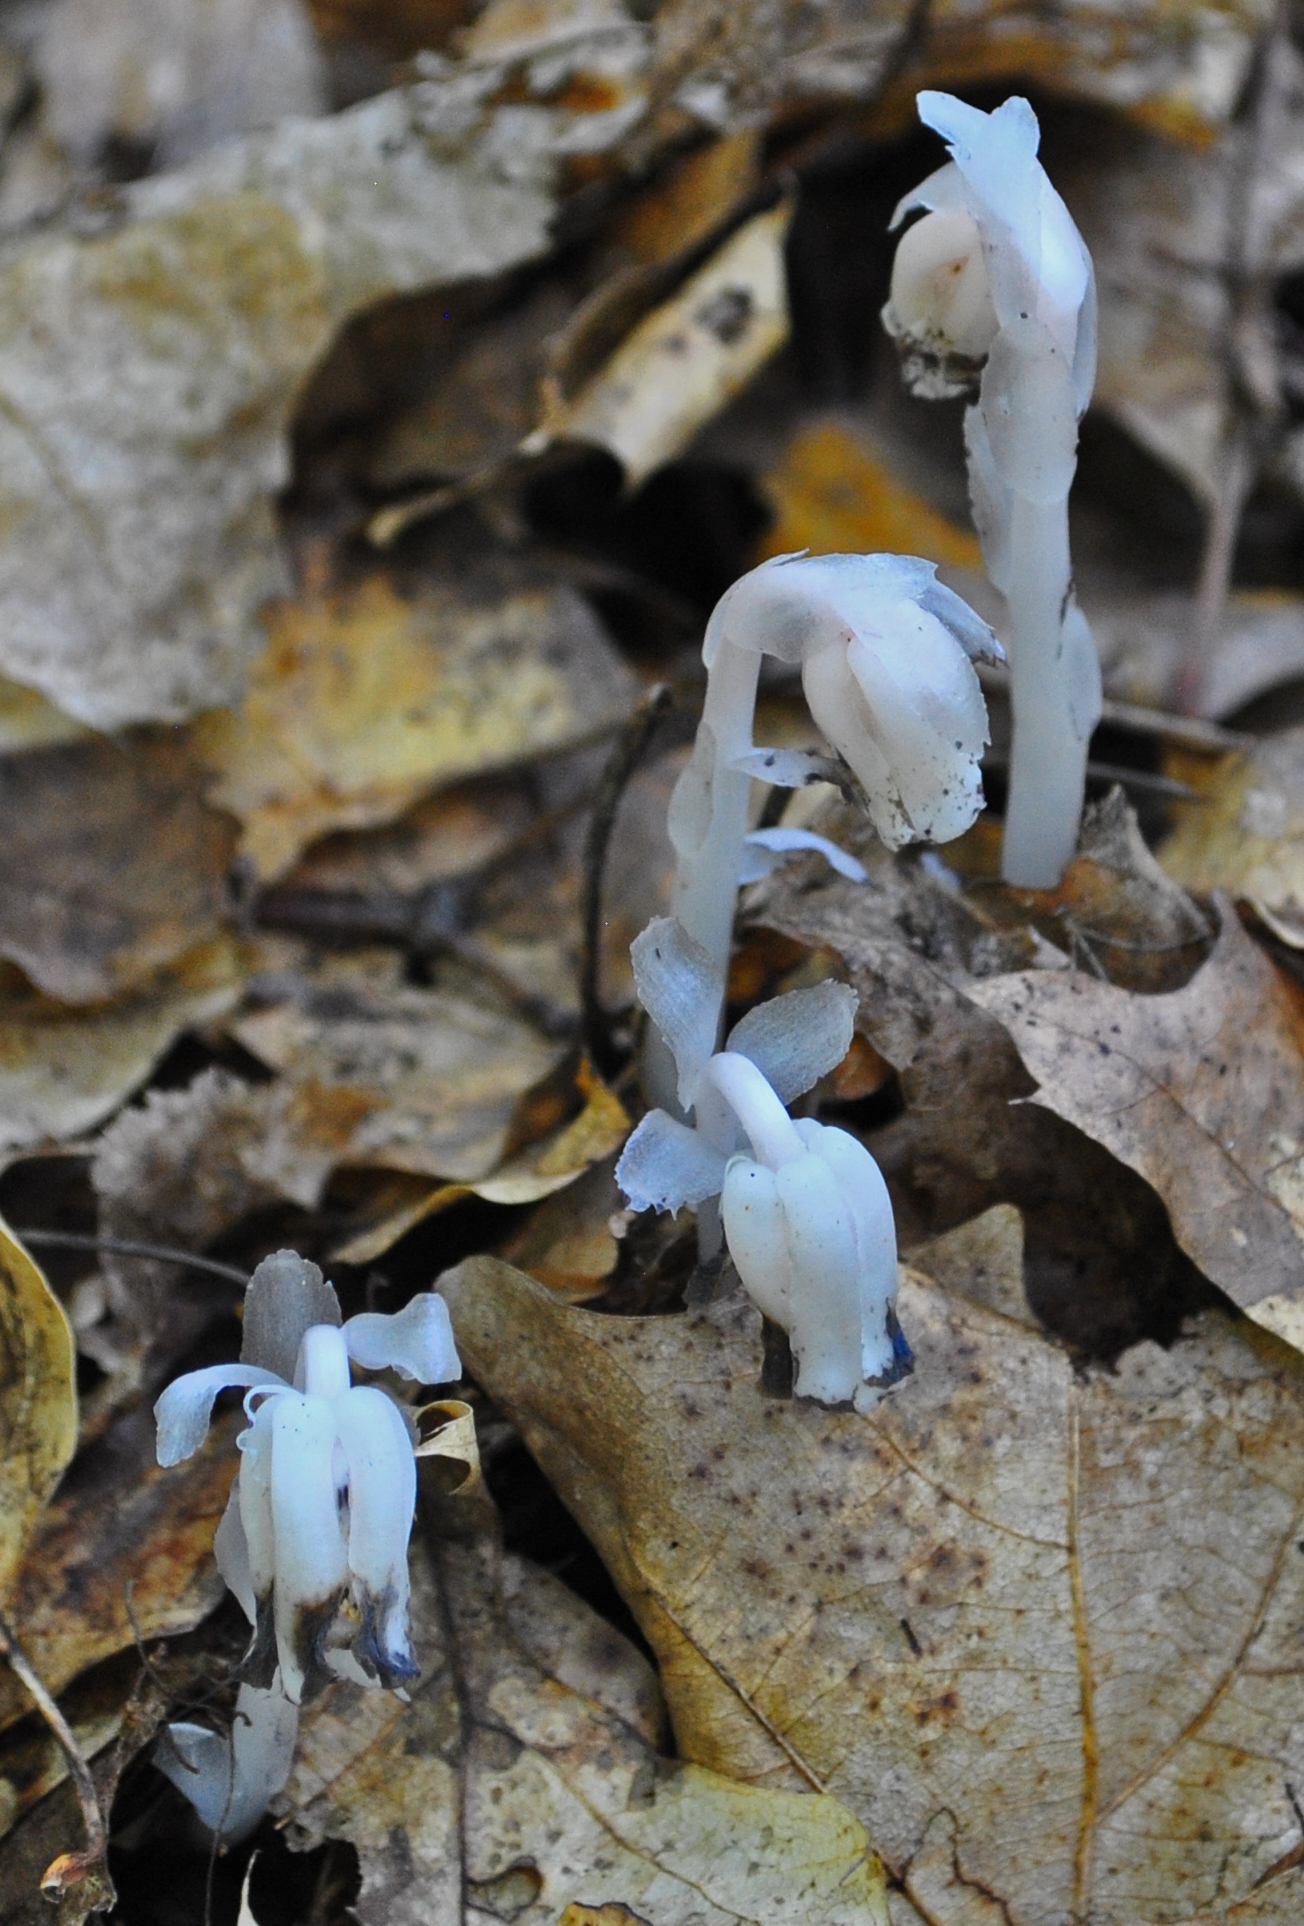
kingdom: Plantae
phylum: Tracheophyta
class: Magnoliopsida
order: Ericales
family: Ericaceae
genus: Monotropa
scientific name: Monotropa uniflora
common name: Convulsion root
